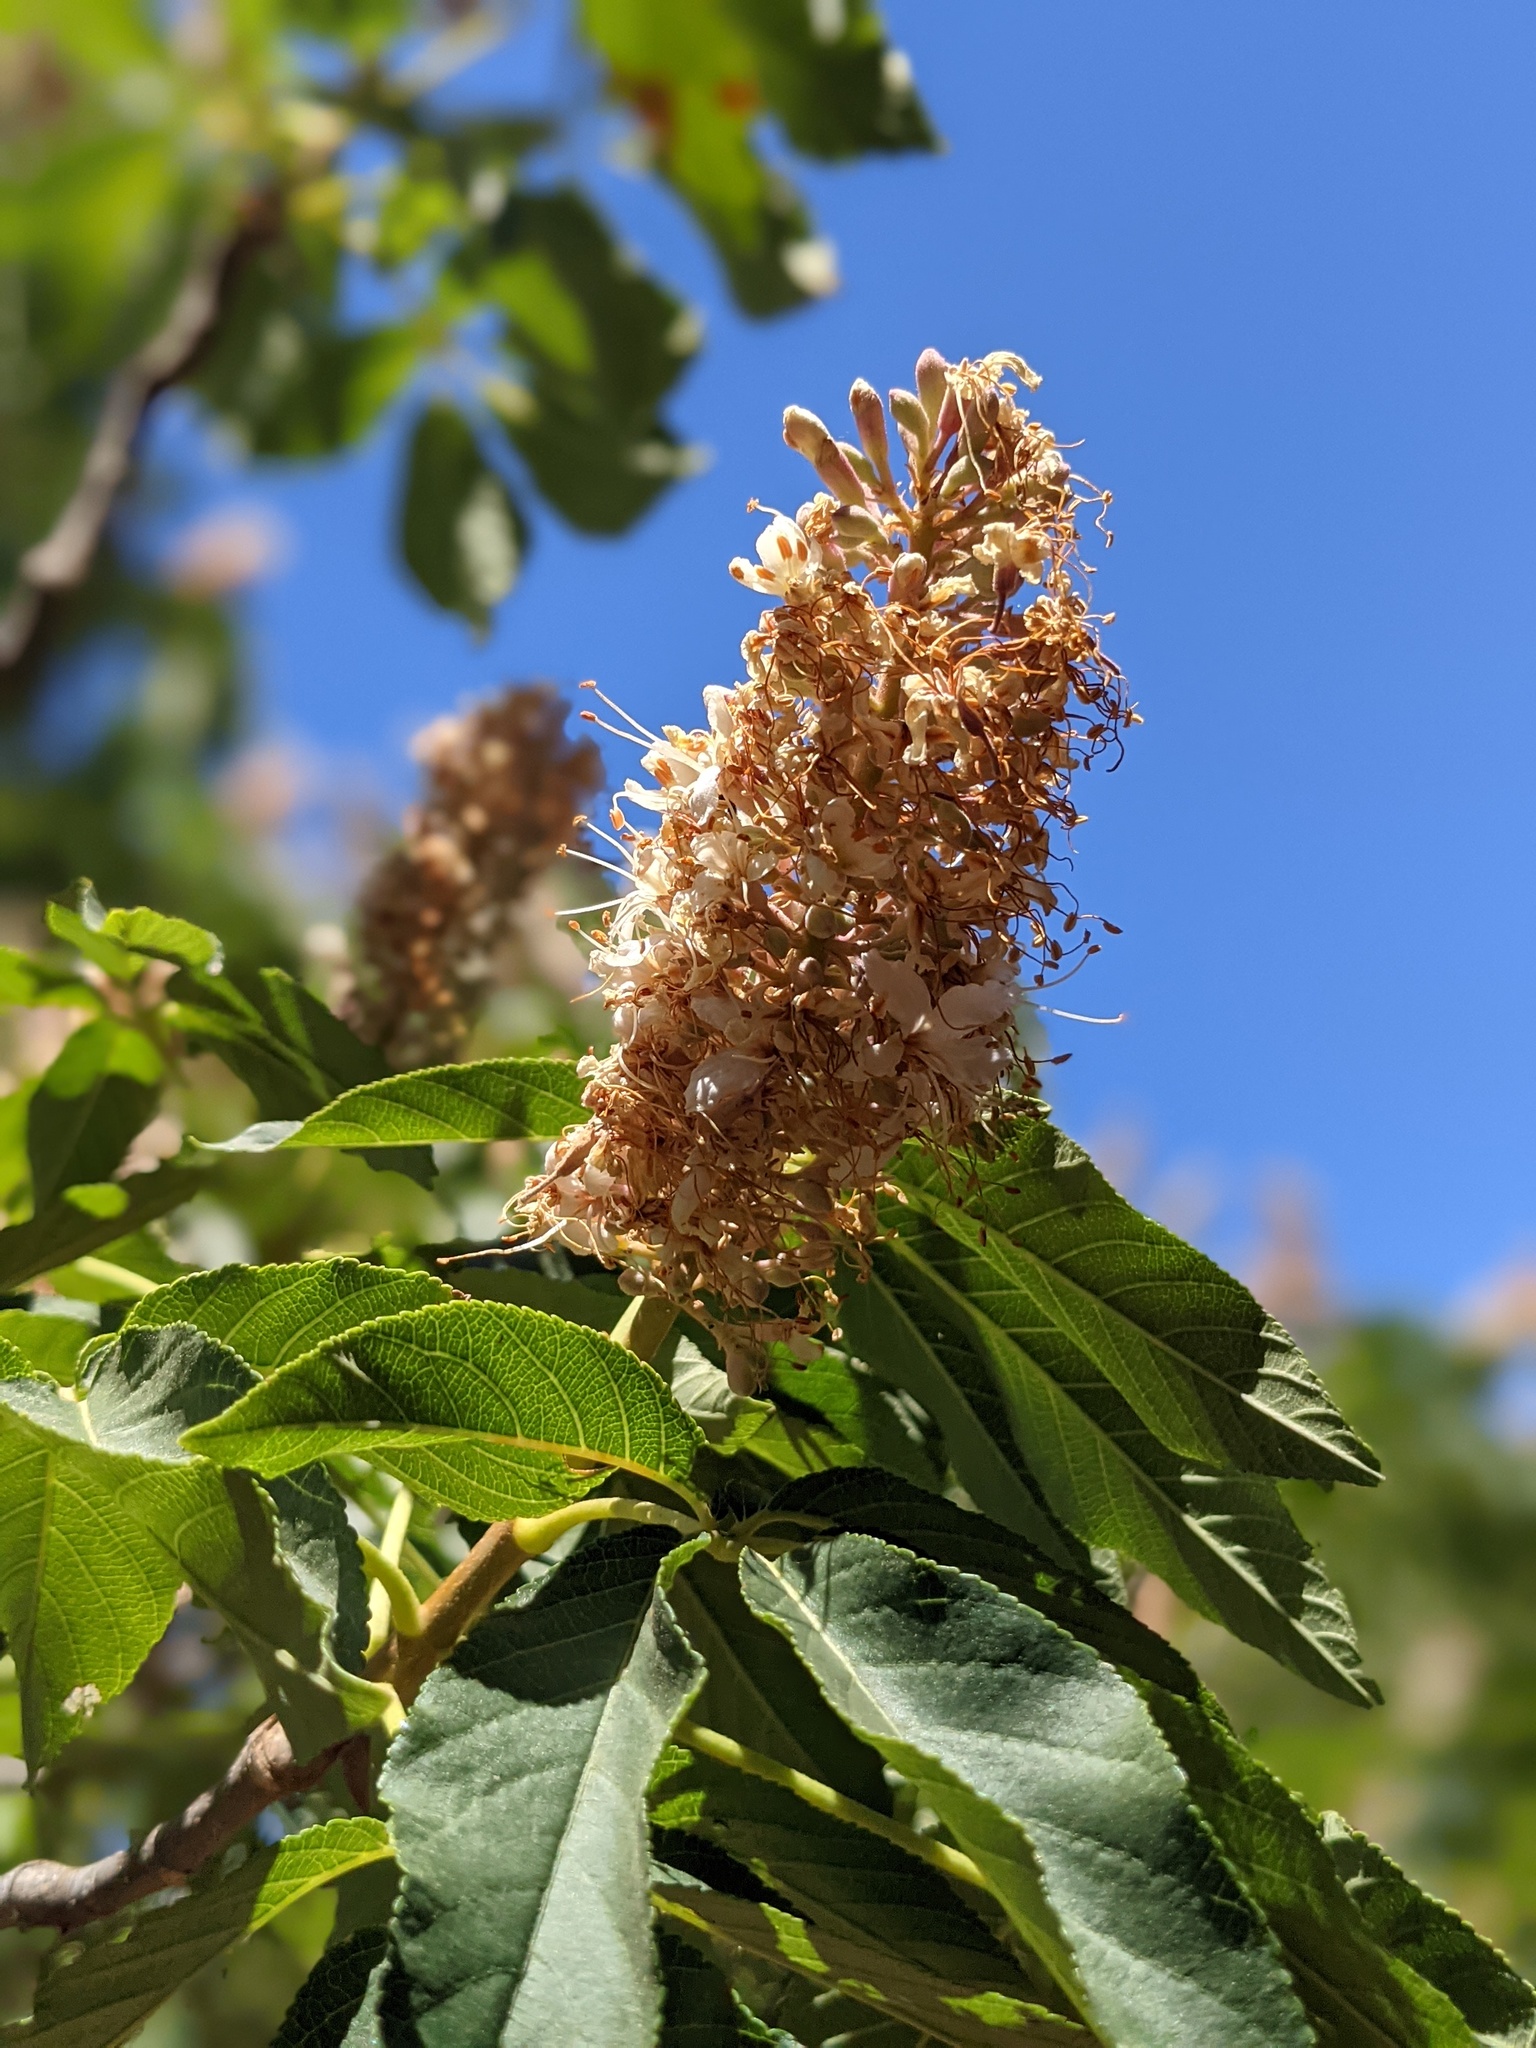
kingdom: Plantae
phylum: Tracheophyta
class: Magnoliopsida
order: Sapindales
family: Sapindaceae
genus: Aesculus
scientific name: Aesculus californica
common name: California buckeye
